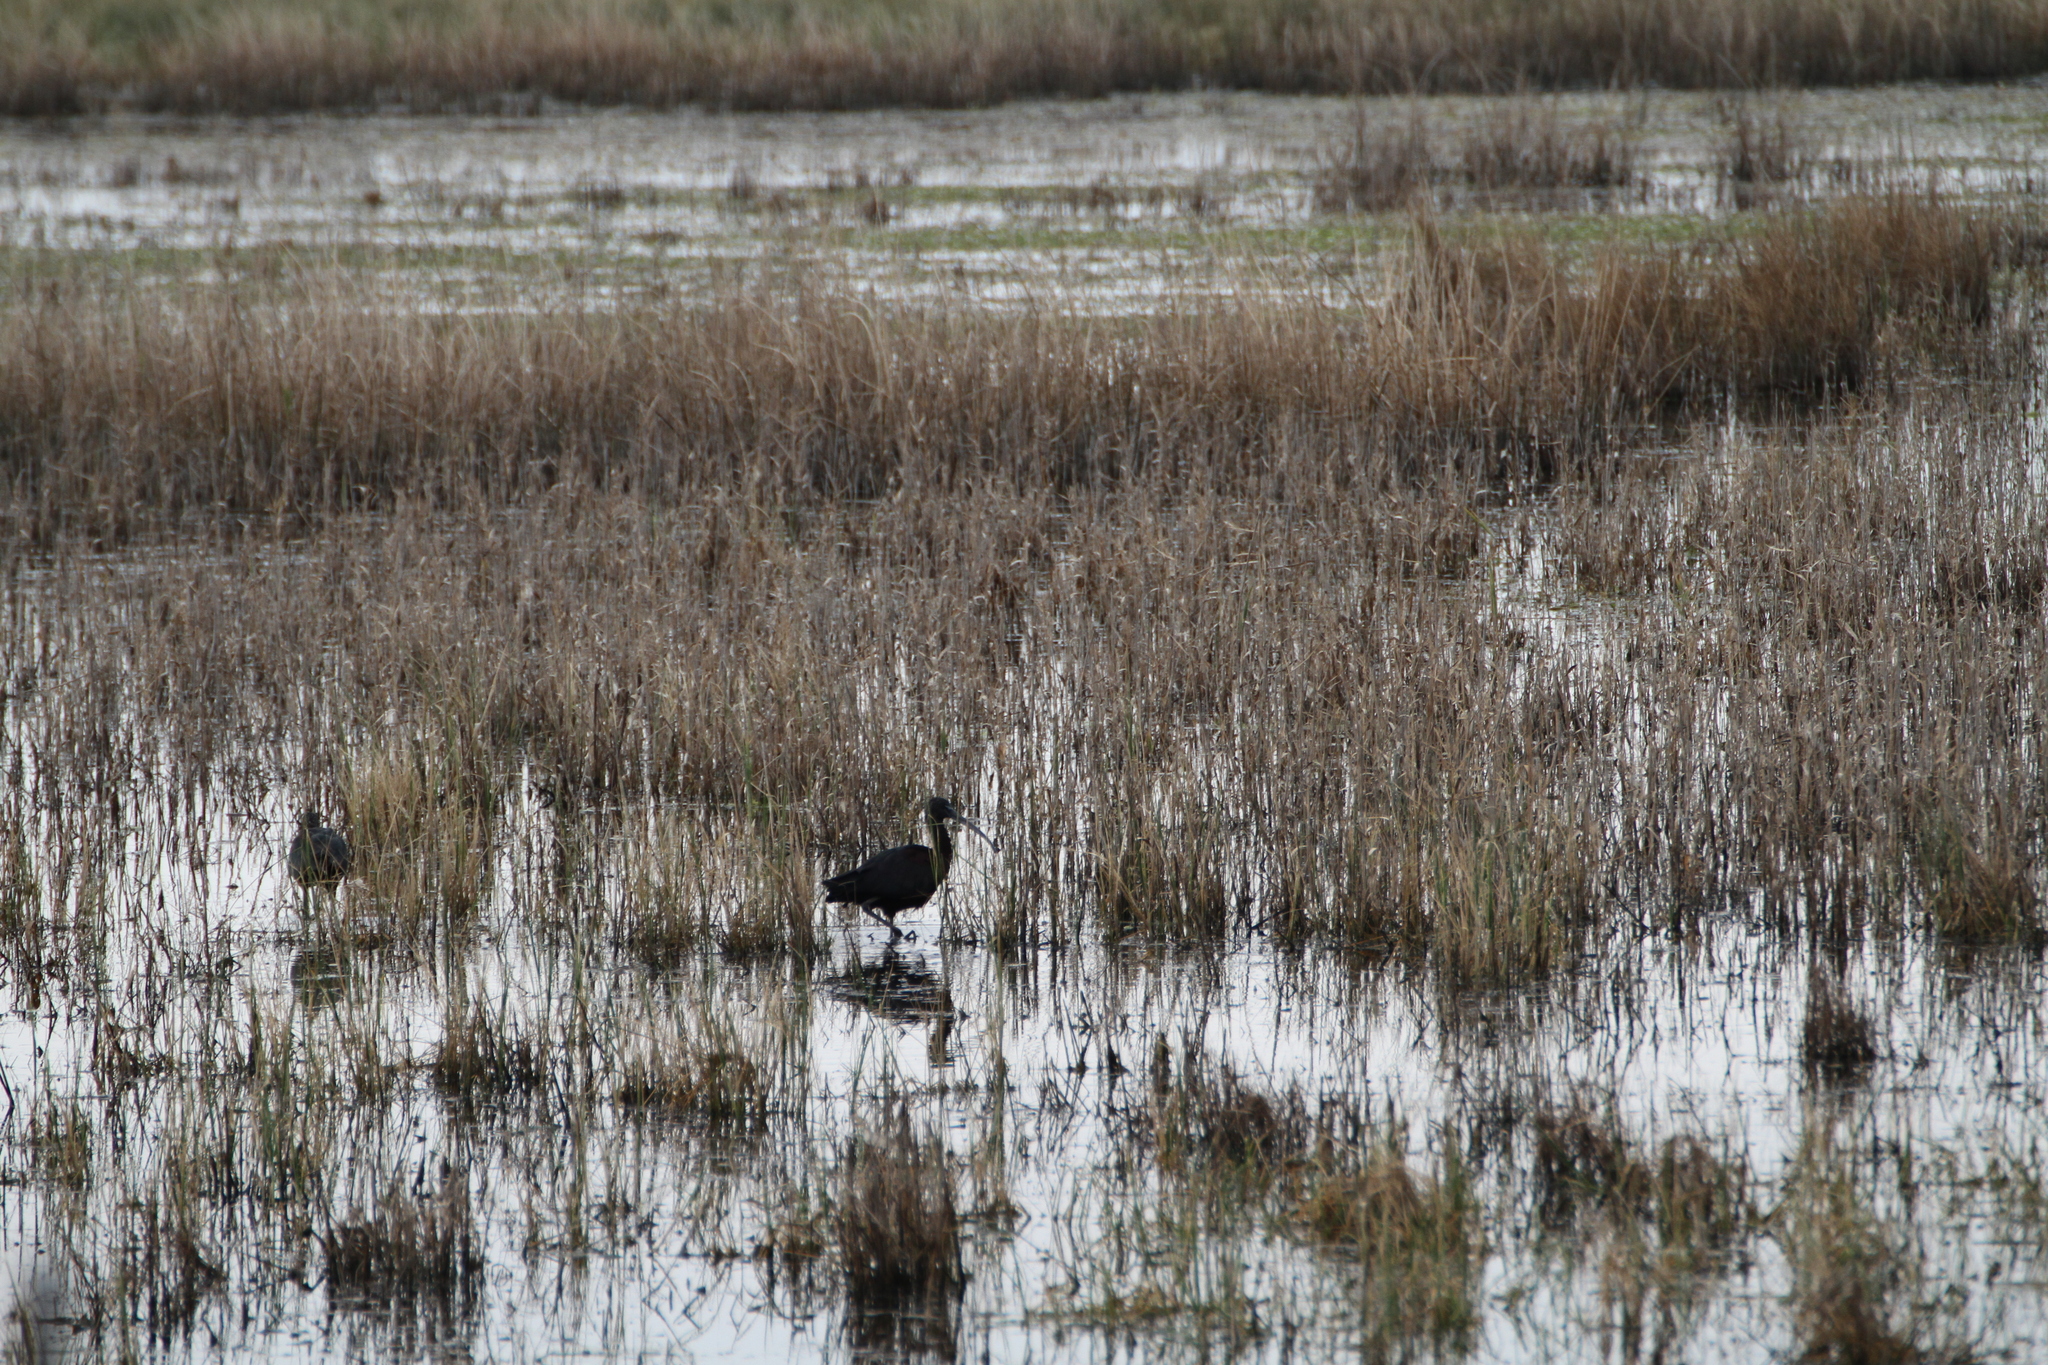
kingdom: Animalia
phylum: Chordata
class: Aves
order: Pelecaniformes
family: Threskiornithidae
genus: Plegadis
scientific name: Plegadis falcinellus
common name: Glossy ibis
